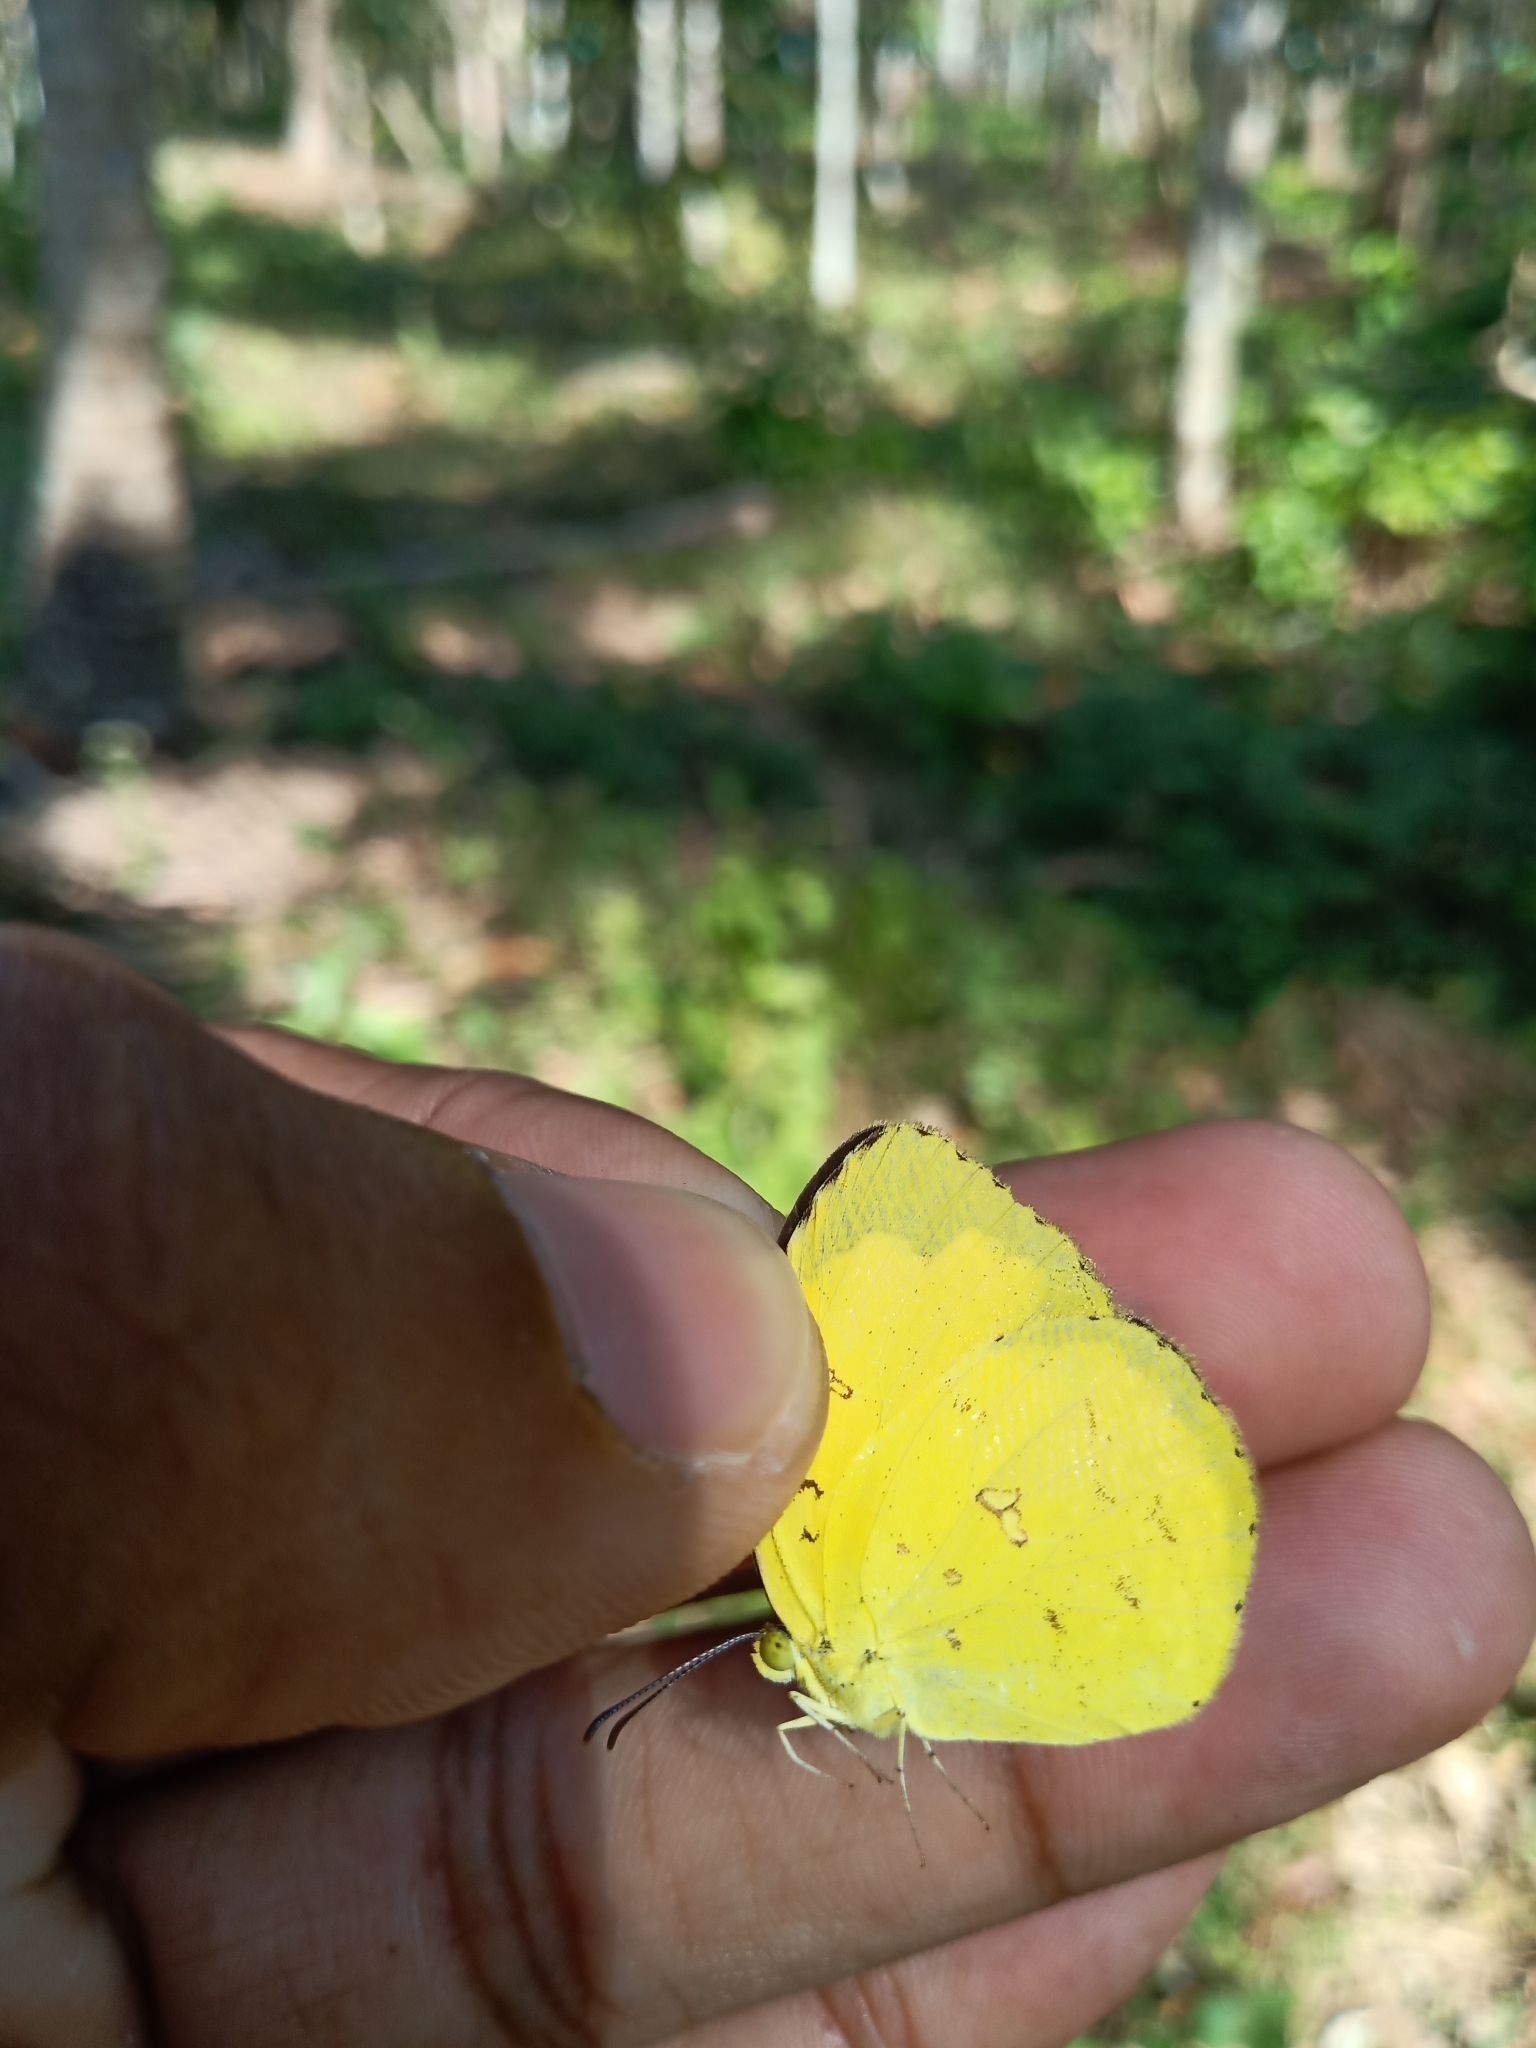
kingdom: Animalia
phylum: Arthropoda
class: Insecta
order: Lepidoptera
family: Pieridae
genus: Eurema
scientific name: Eurema hecabe
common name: Pale grass yellow
